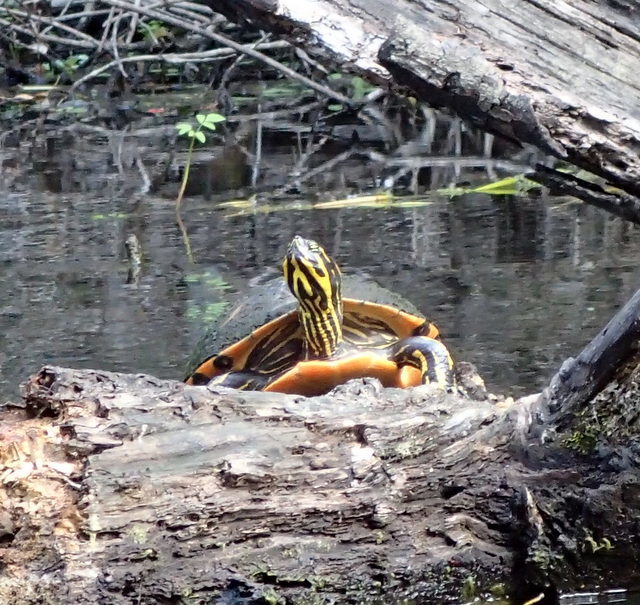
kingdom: Animalia
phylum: Chordata
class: Testudines
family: Emydidae
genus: Pseudemys
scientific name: Pseudemys nelsoni
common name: Florida red-bellied turtle
